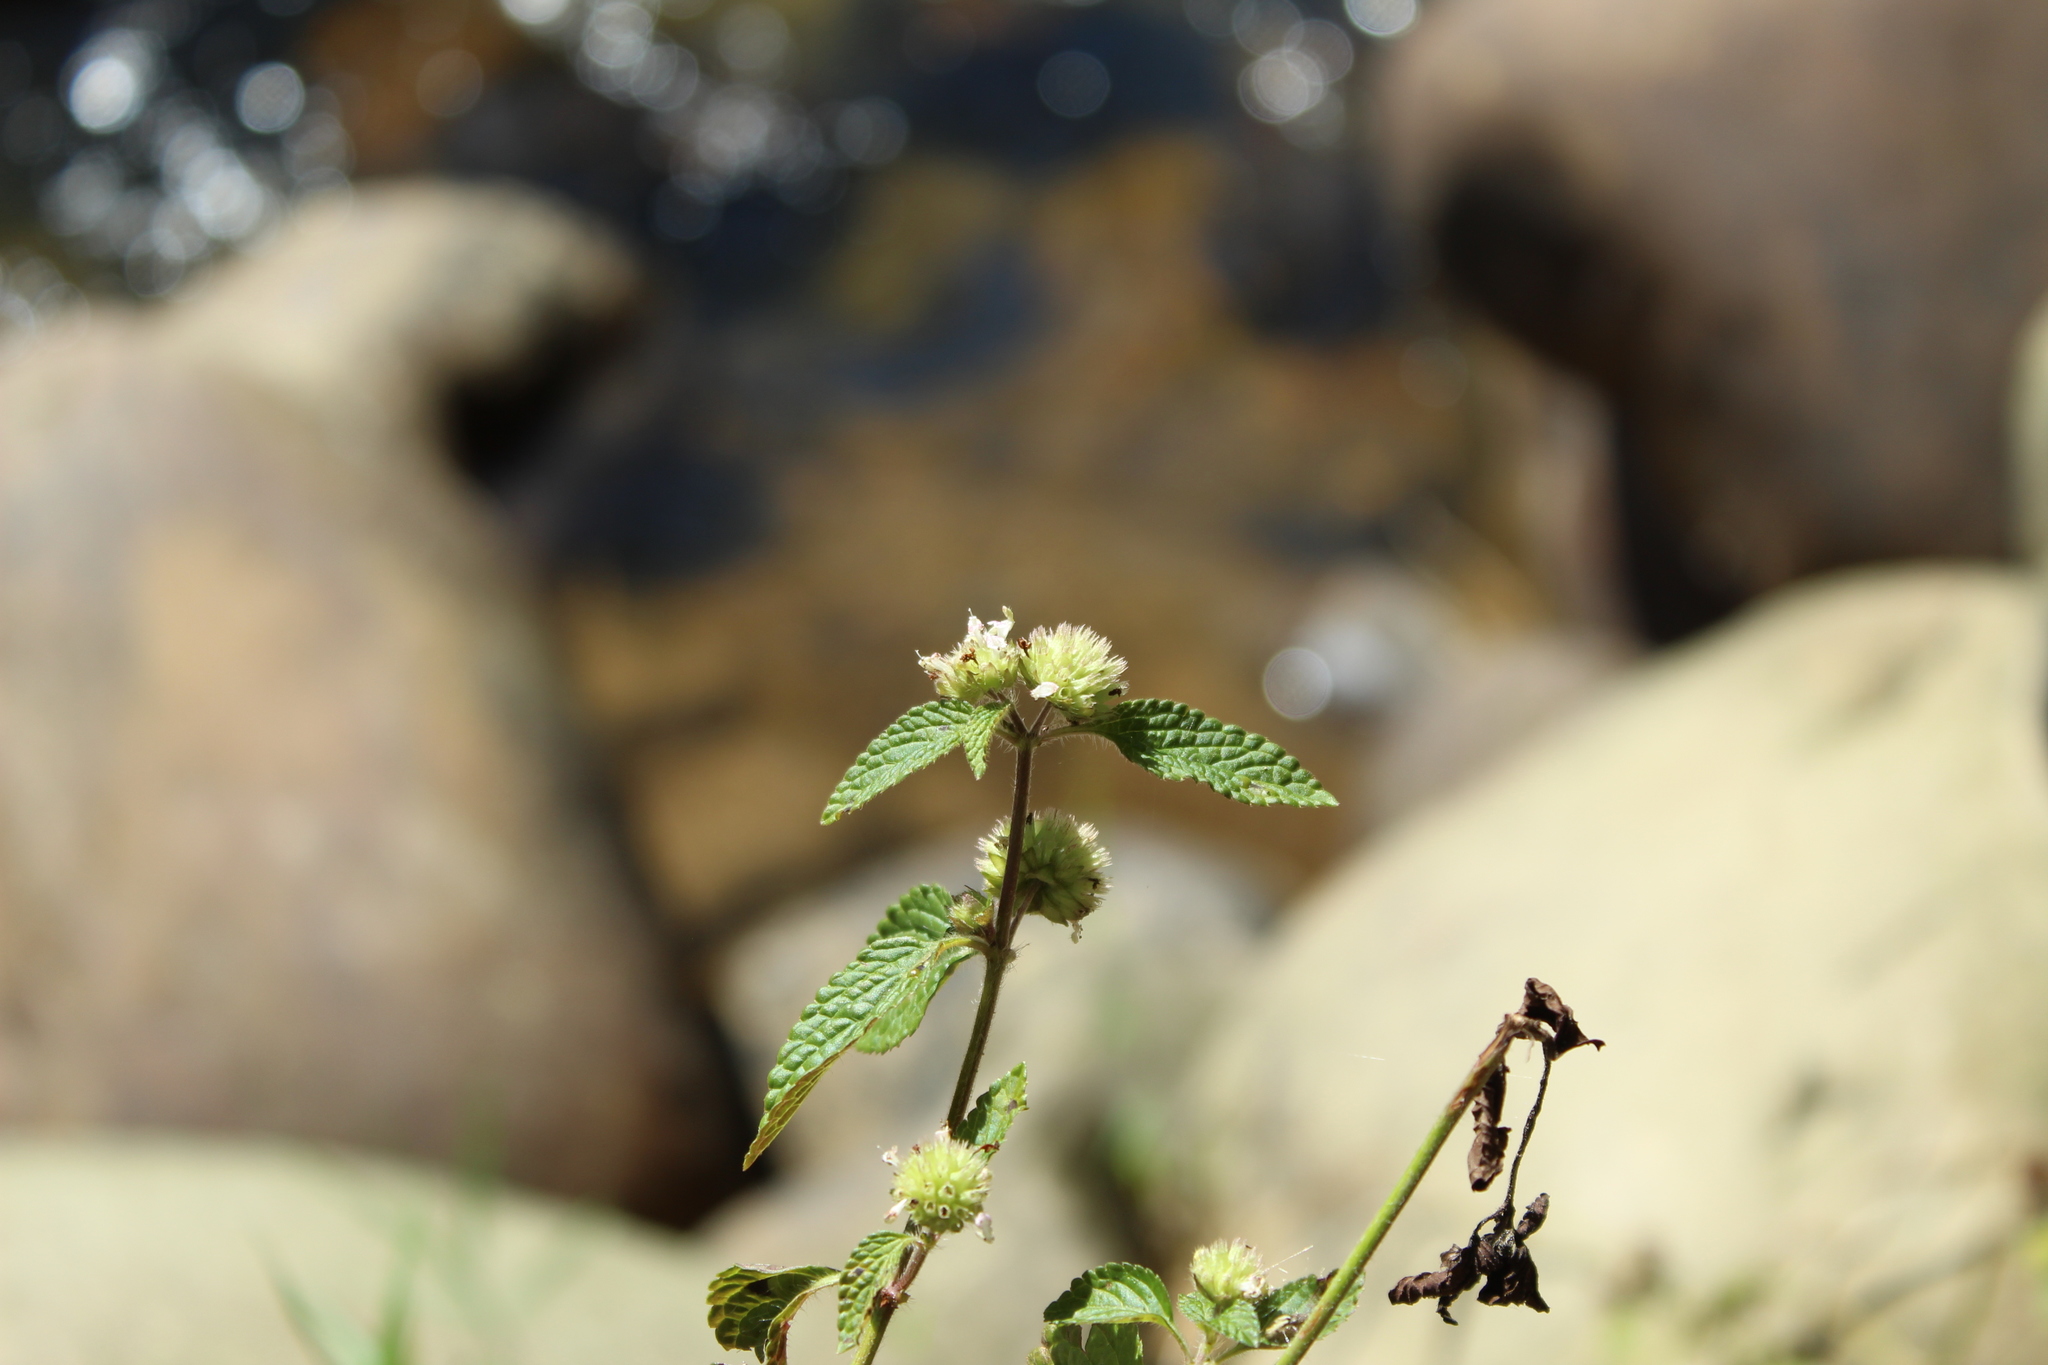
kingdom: Plantae
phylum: Tracheophyta
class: Magnoliopsida
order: Lamiales
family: Lamiaceae
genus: Hyptis
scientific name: Hyptis atrorubens
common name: Lanmant
